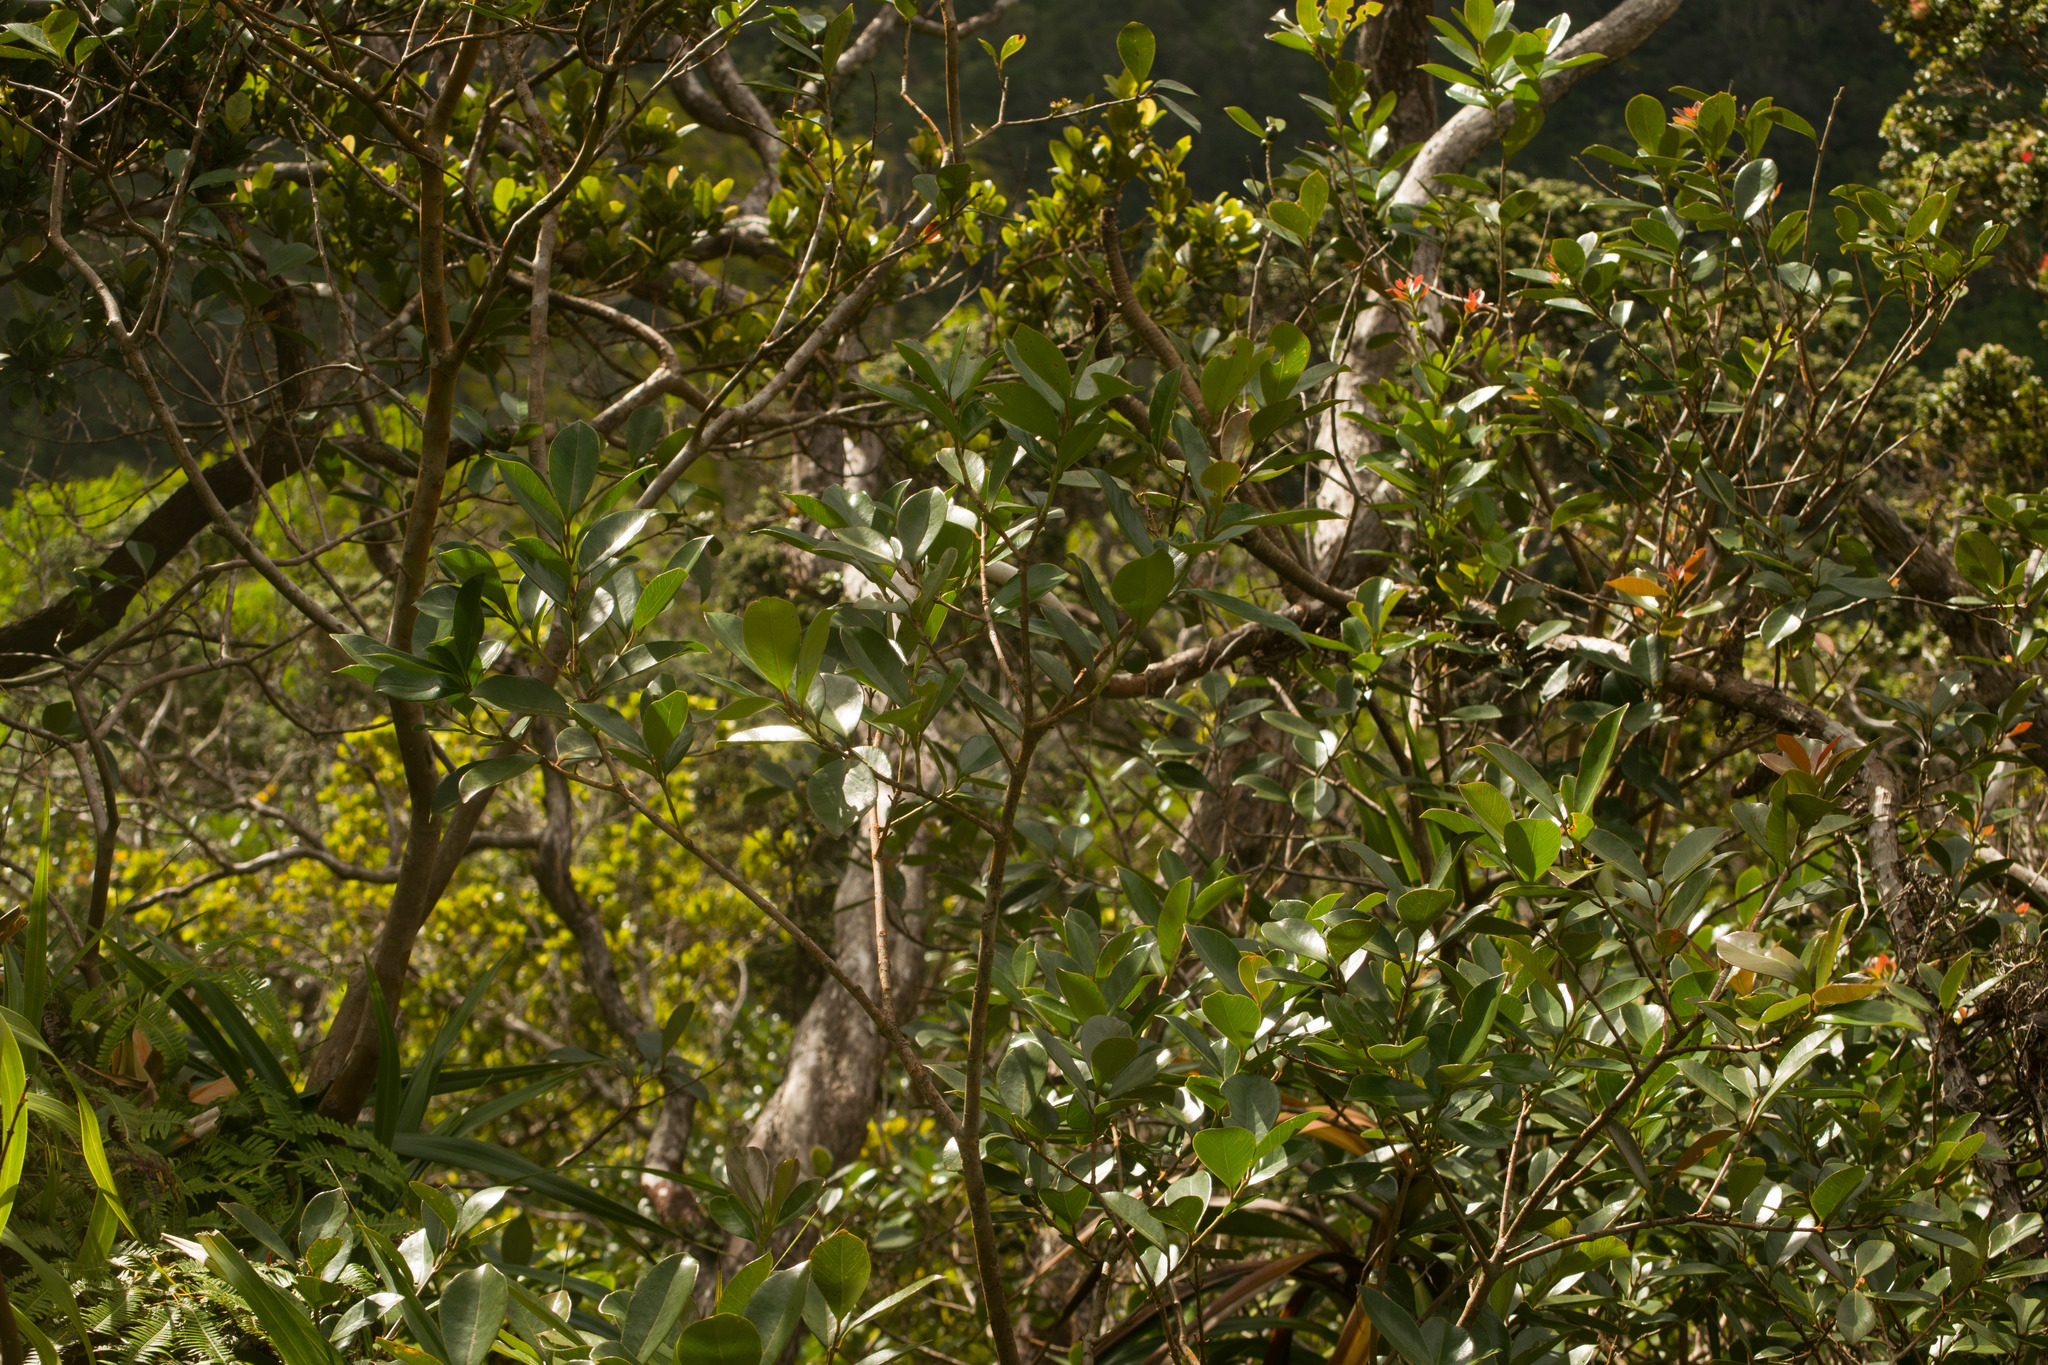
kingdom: Plantae
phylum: Tracheophyta
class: Magnoliopsida
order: Myrtales
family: Myrtaceae
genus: Psidium
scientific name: Psidium cattleianum
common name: Strawberry guava
